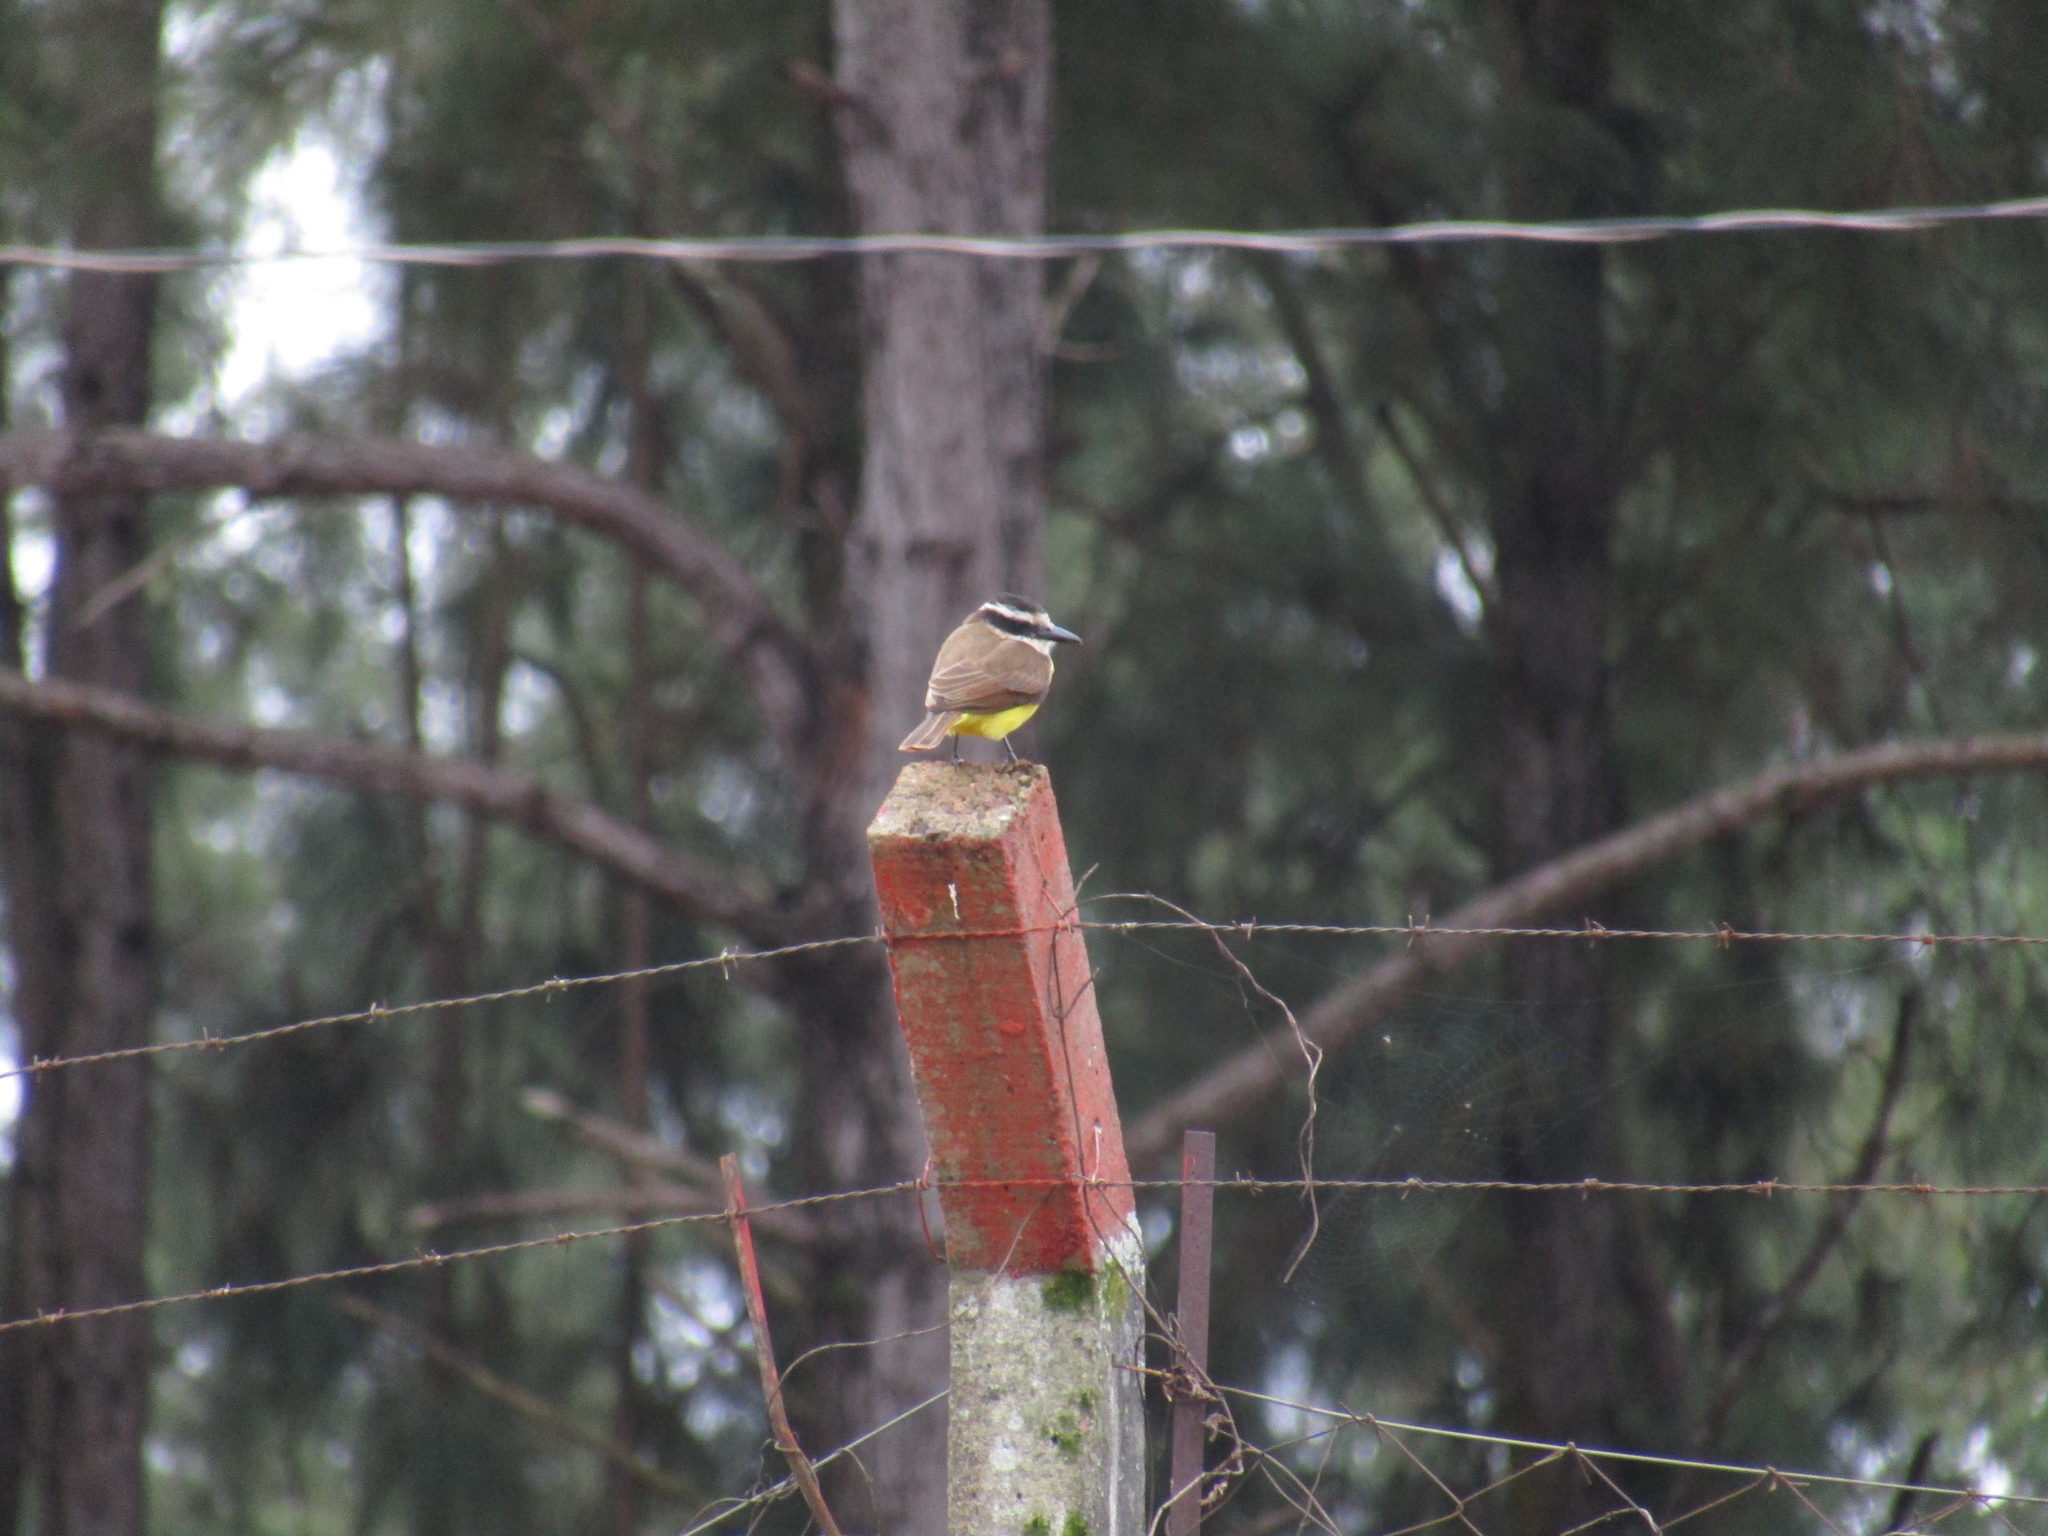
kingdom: Animalia
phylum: Chordata
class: Aves
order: Passeriformes
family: Tyrannidae
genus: Pitangus
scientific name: Pitangus sulphuratus
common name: Great kiskadee
